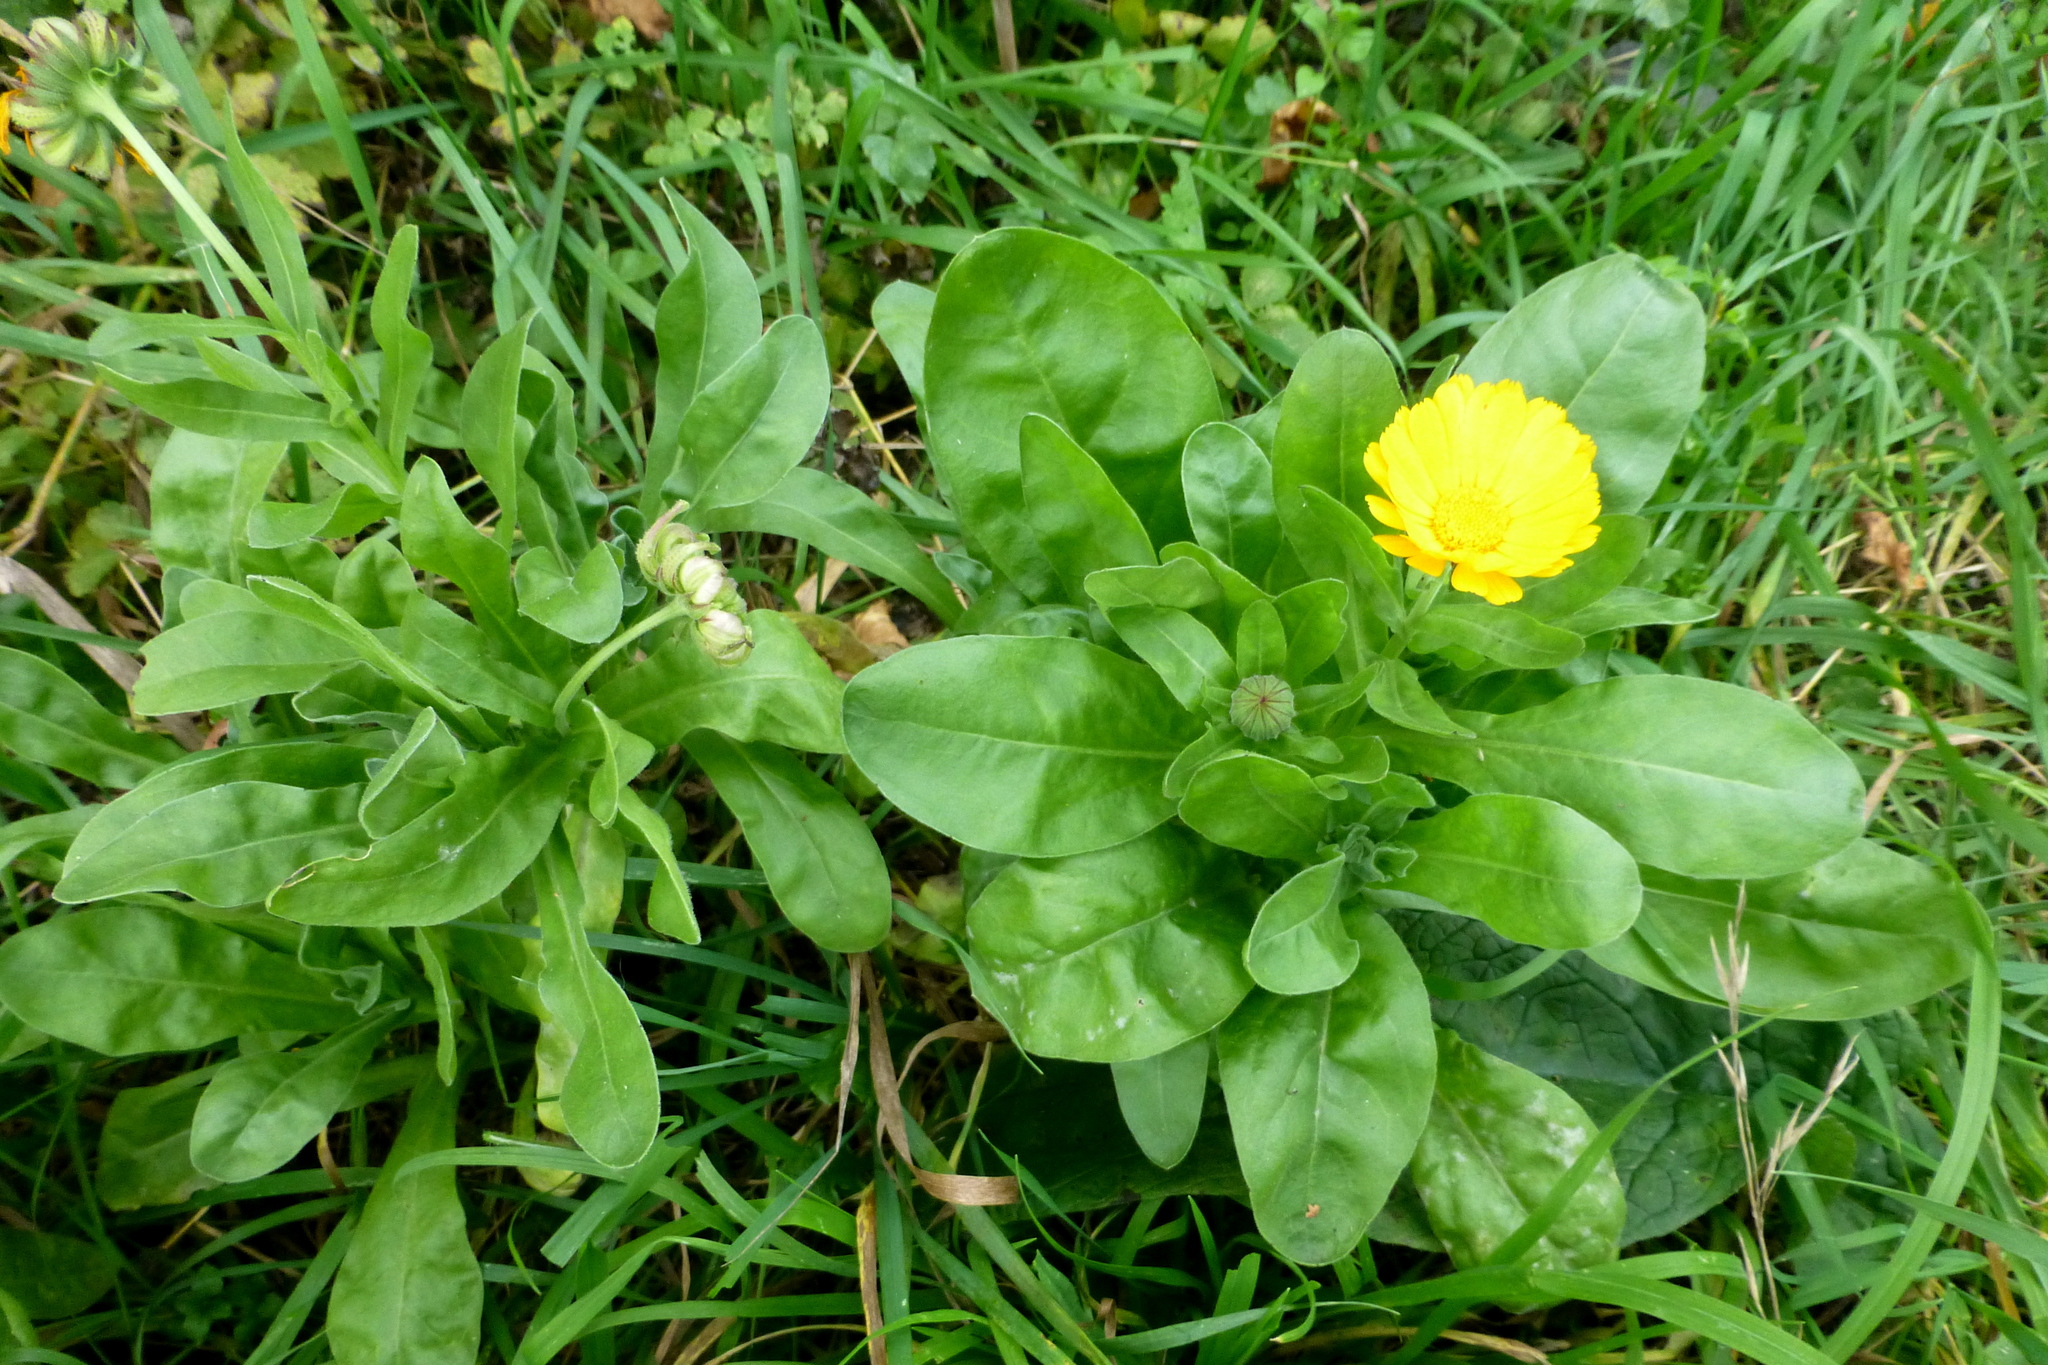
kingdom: Plantae
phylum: Tracheophyta
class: Magnoliopsida
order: Asterales
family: Asteraceae
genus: Calendula
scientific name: Calendula officinalis
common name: Pot marigold
